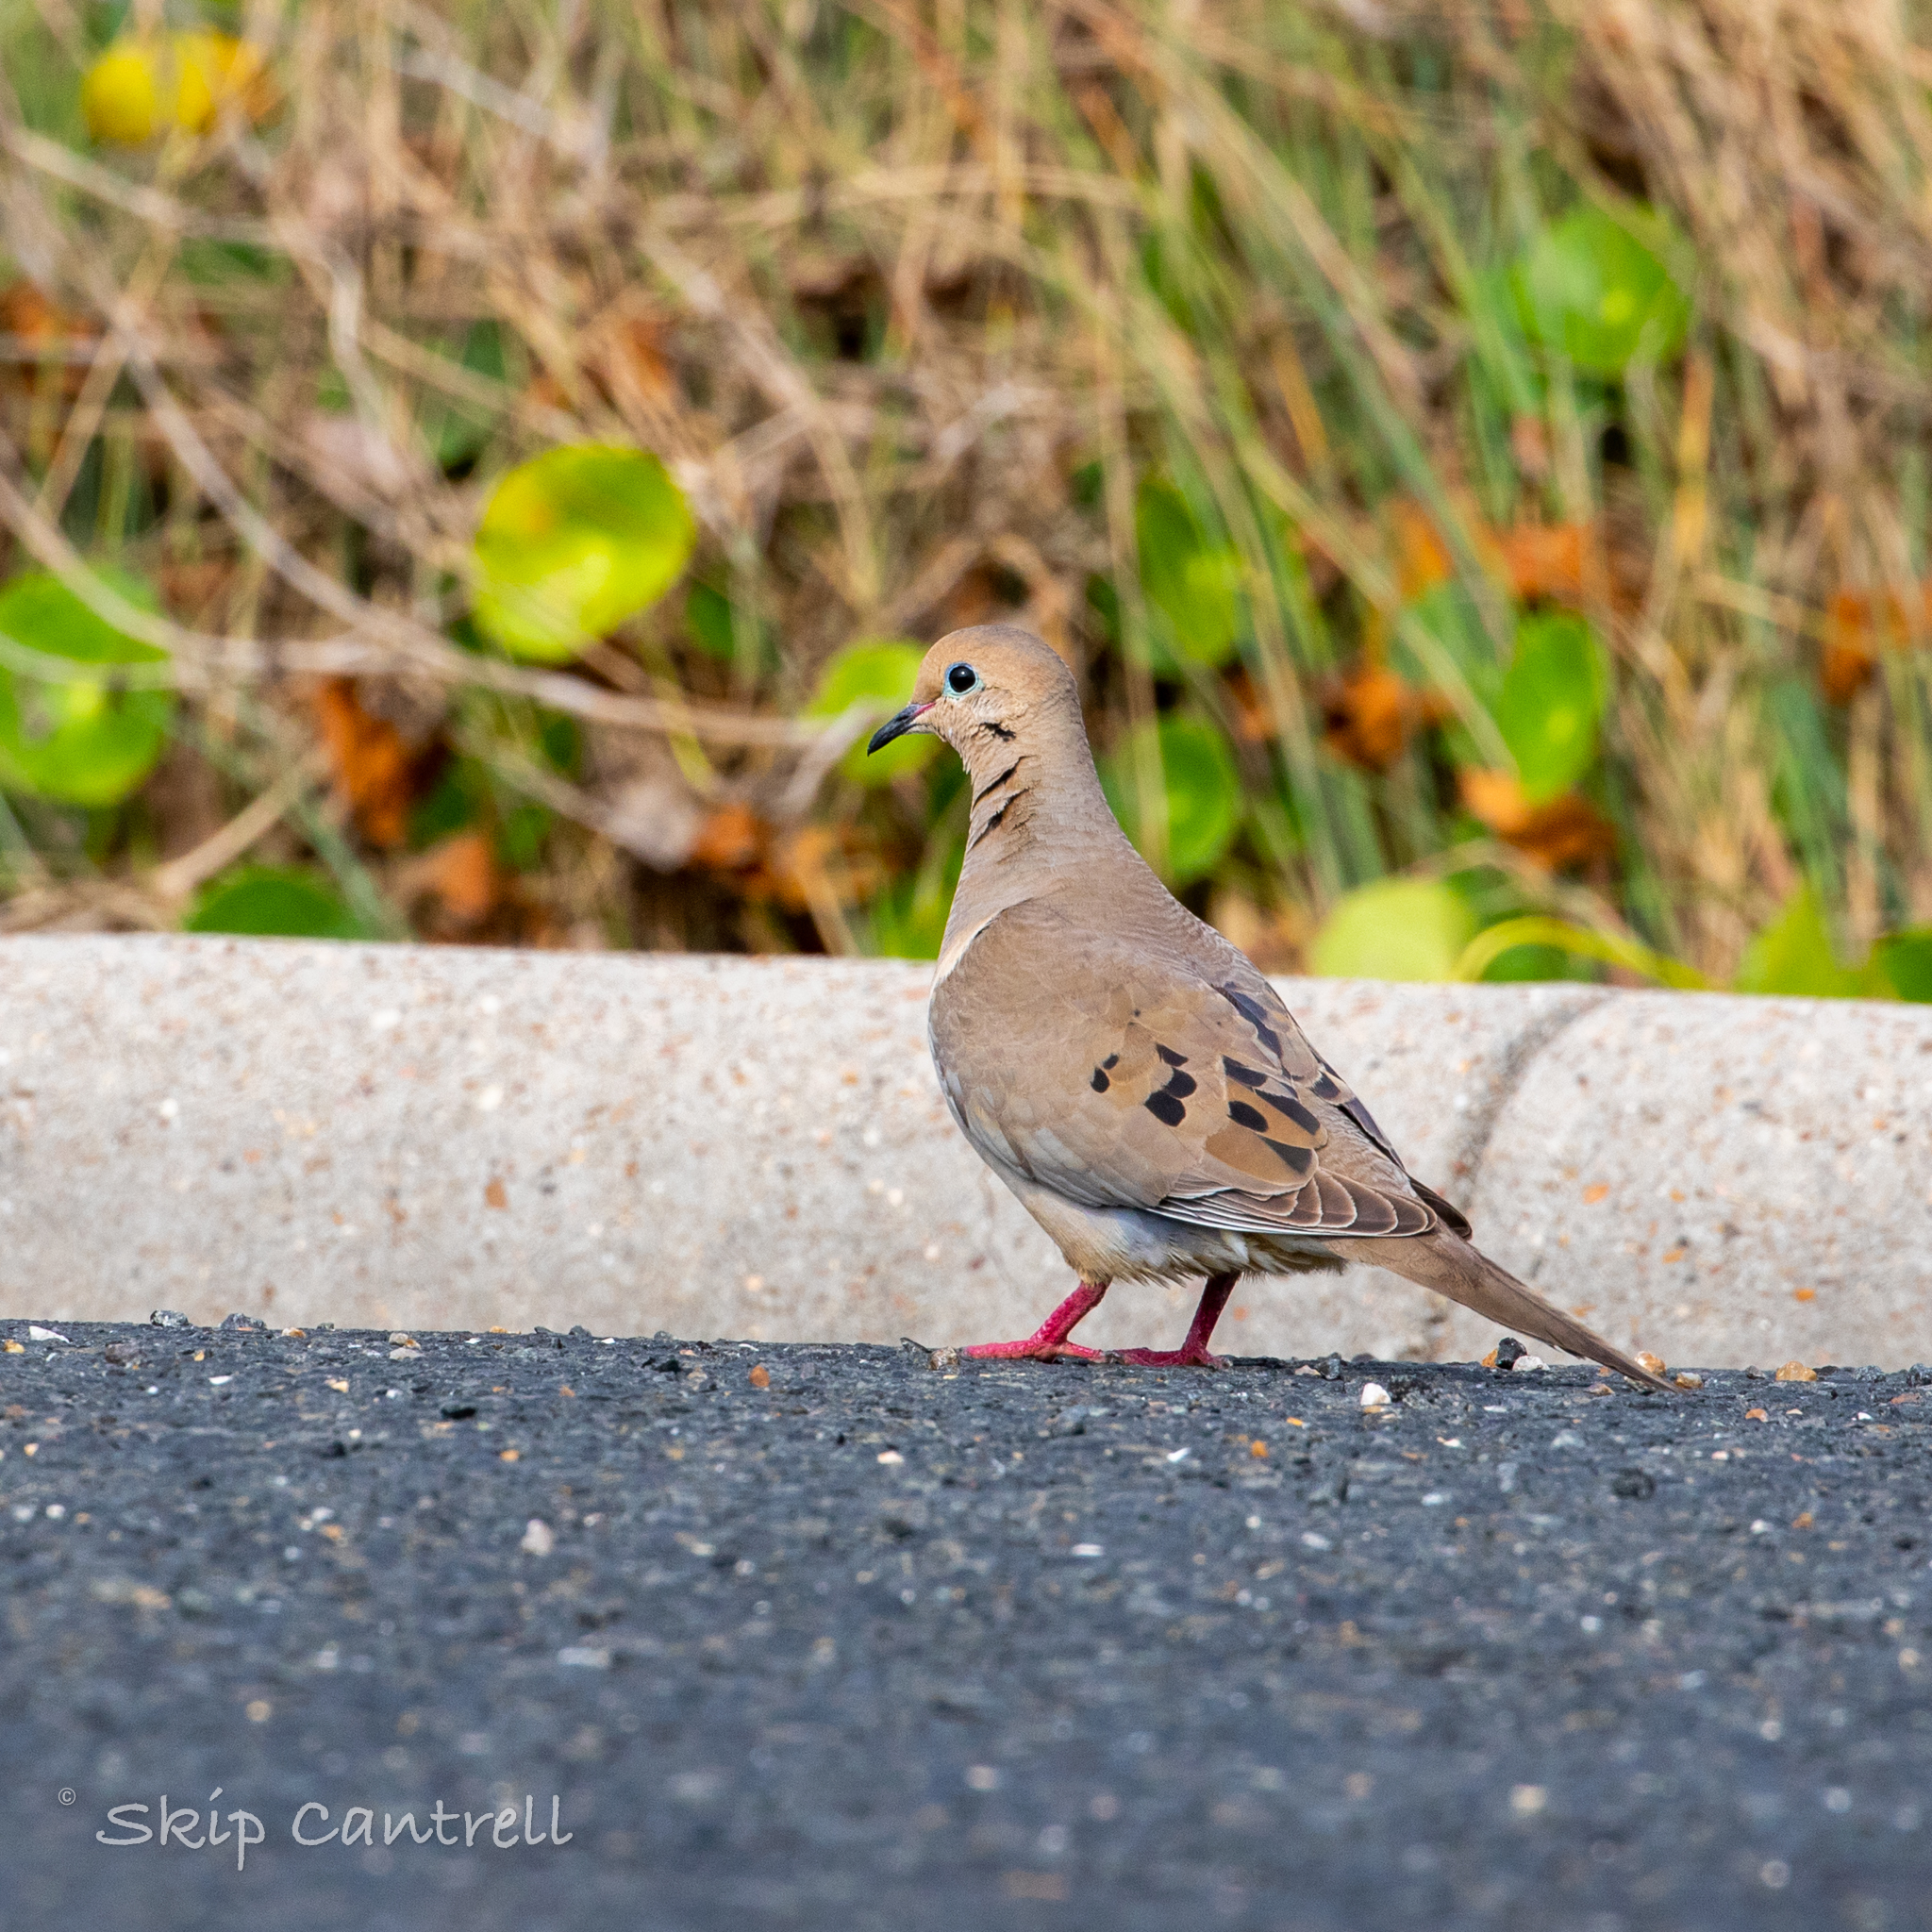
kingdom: Animalia
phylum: Chordata
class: Aves
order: Columbiformes
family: Columbidae
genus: Zenaida
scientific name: Zenaida macroura
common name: Mourning dove
